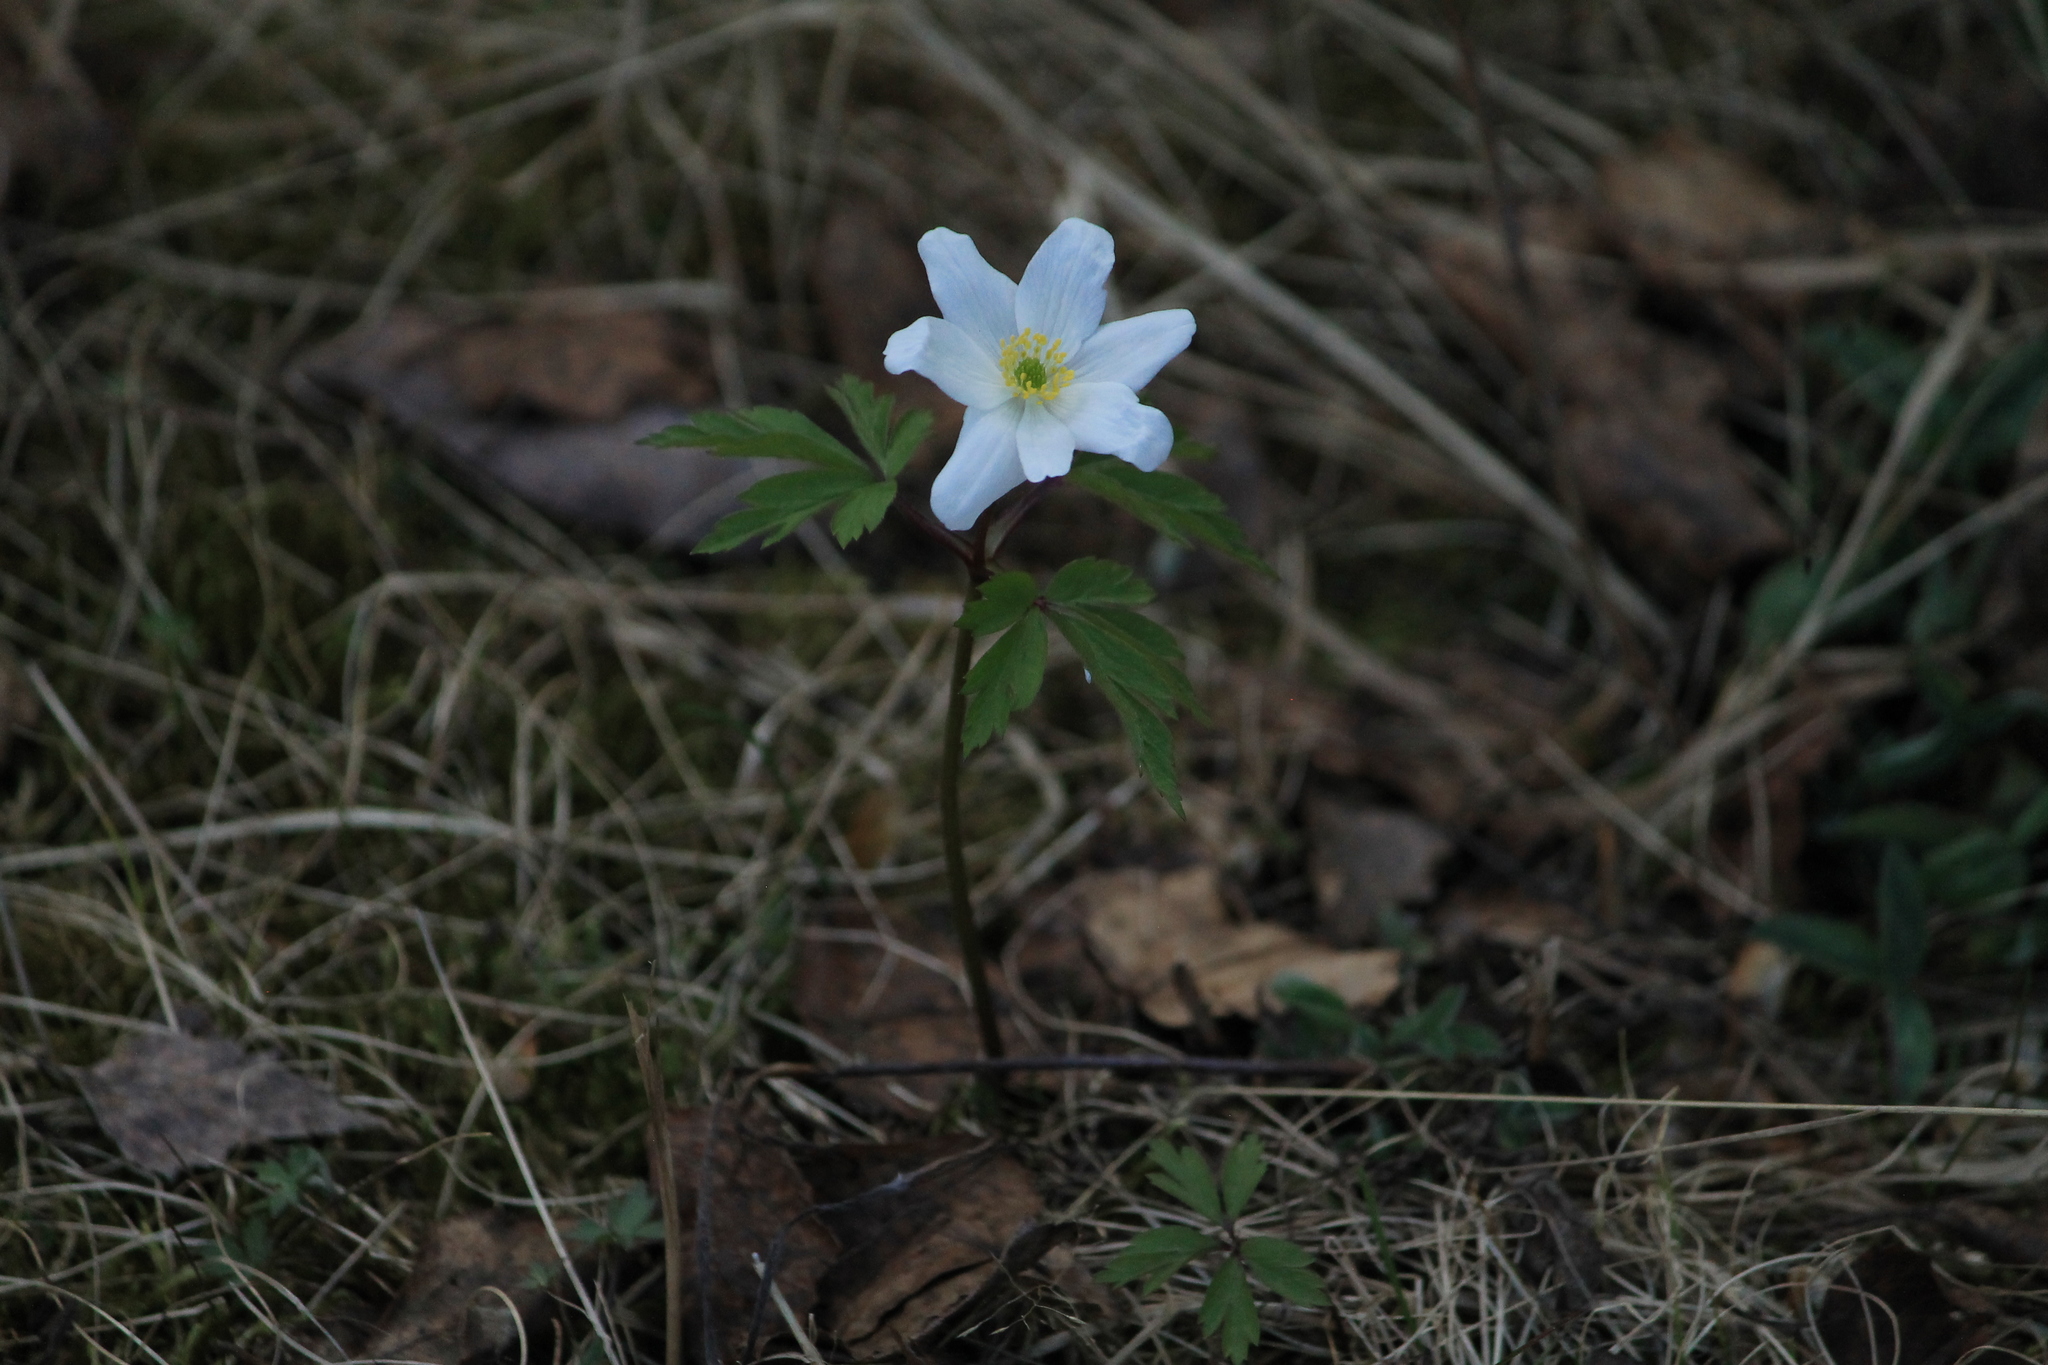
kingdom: Plantae
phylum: Tracheophyta
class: Magnoliopsida
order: Ranunculales
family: Ranunculaceae
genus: Anemone
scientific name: Anemone nemorosa
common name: Wood anemone
